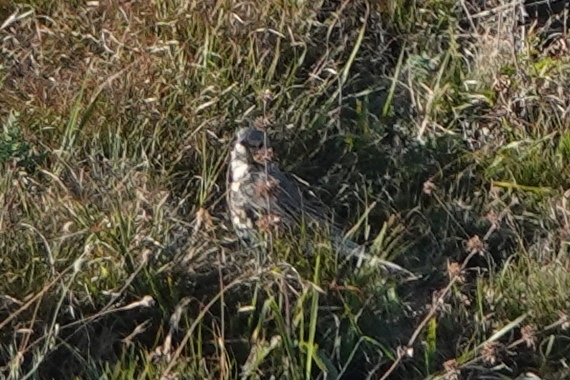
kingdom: Animalia
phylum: Chordata
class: Aves
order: Passeriformes
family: Turdidae
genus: Turdus
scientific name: Turdus viscivorus
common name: Mistle thrush
